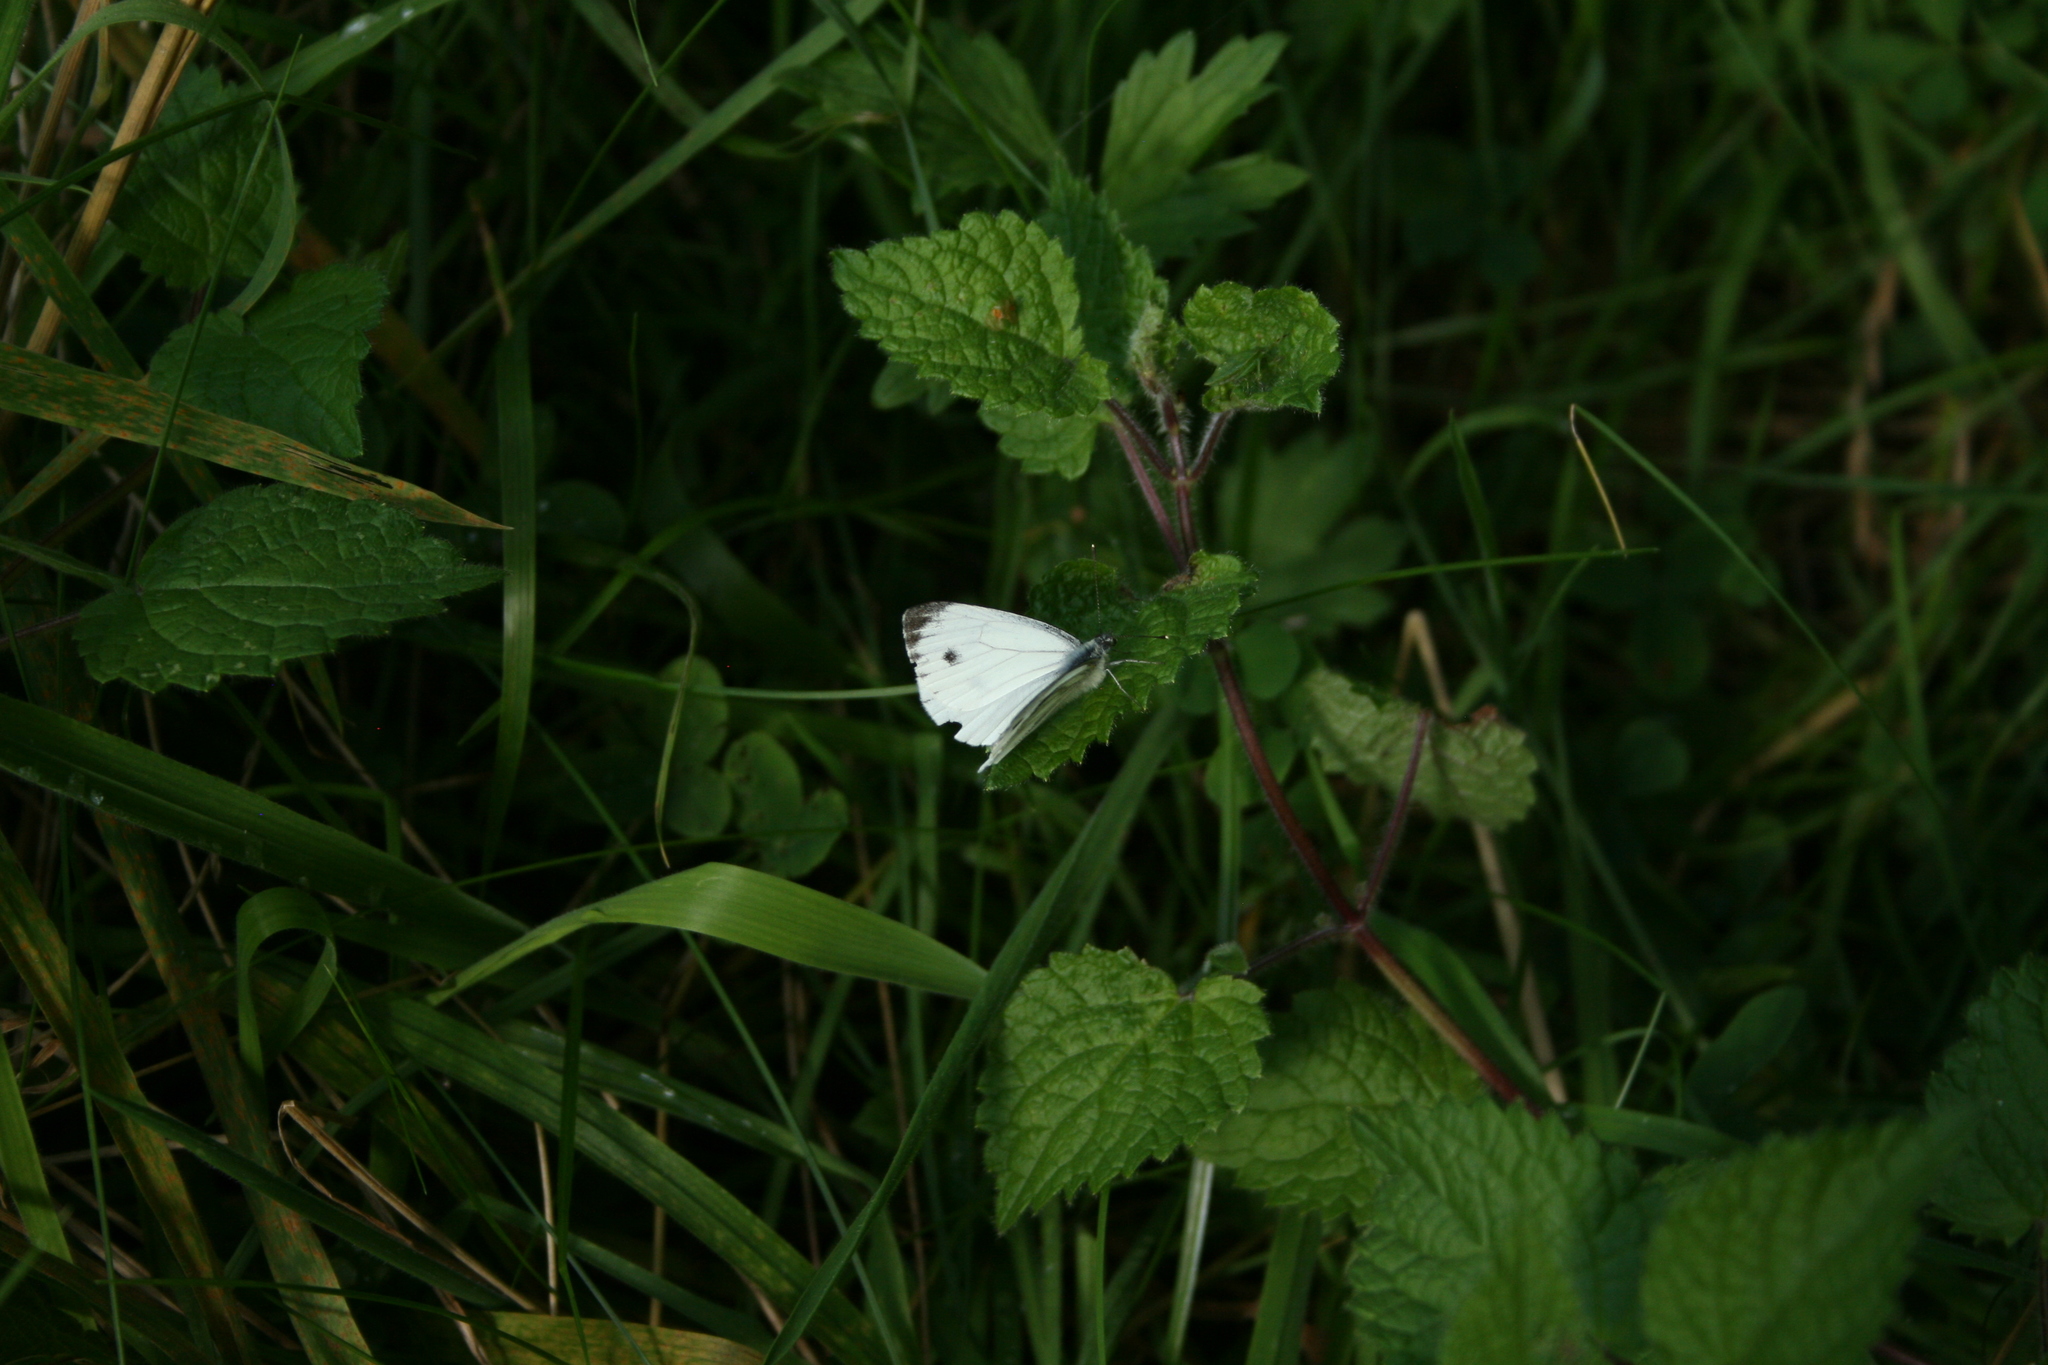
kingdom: Animalia
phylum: Arthropoda
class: Insecta
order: Lepidoptera
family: Pieridae
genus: Pieris
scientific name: Pieris napi
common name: Green-veined white
